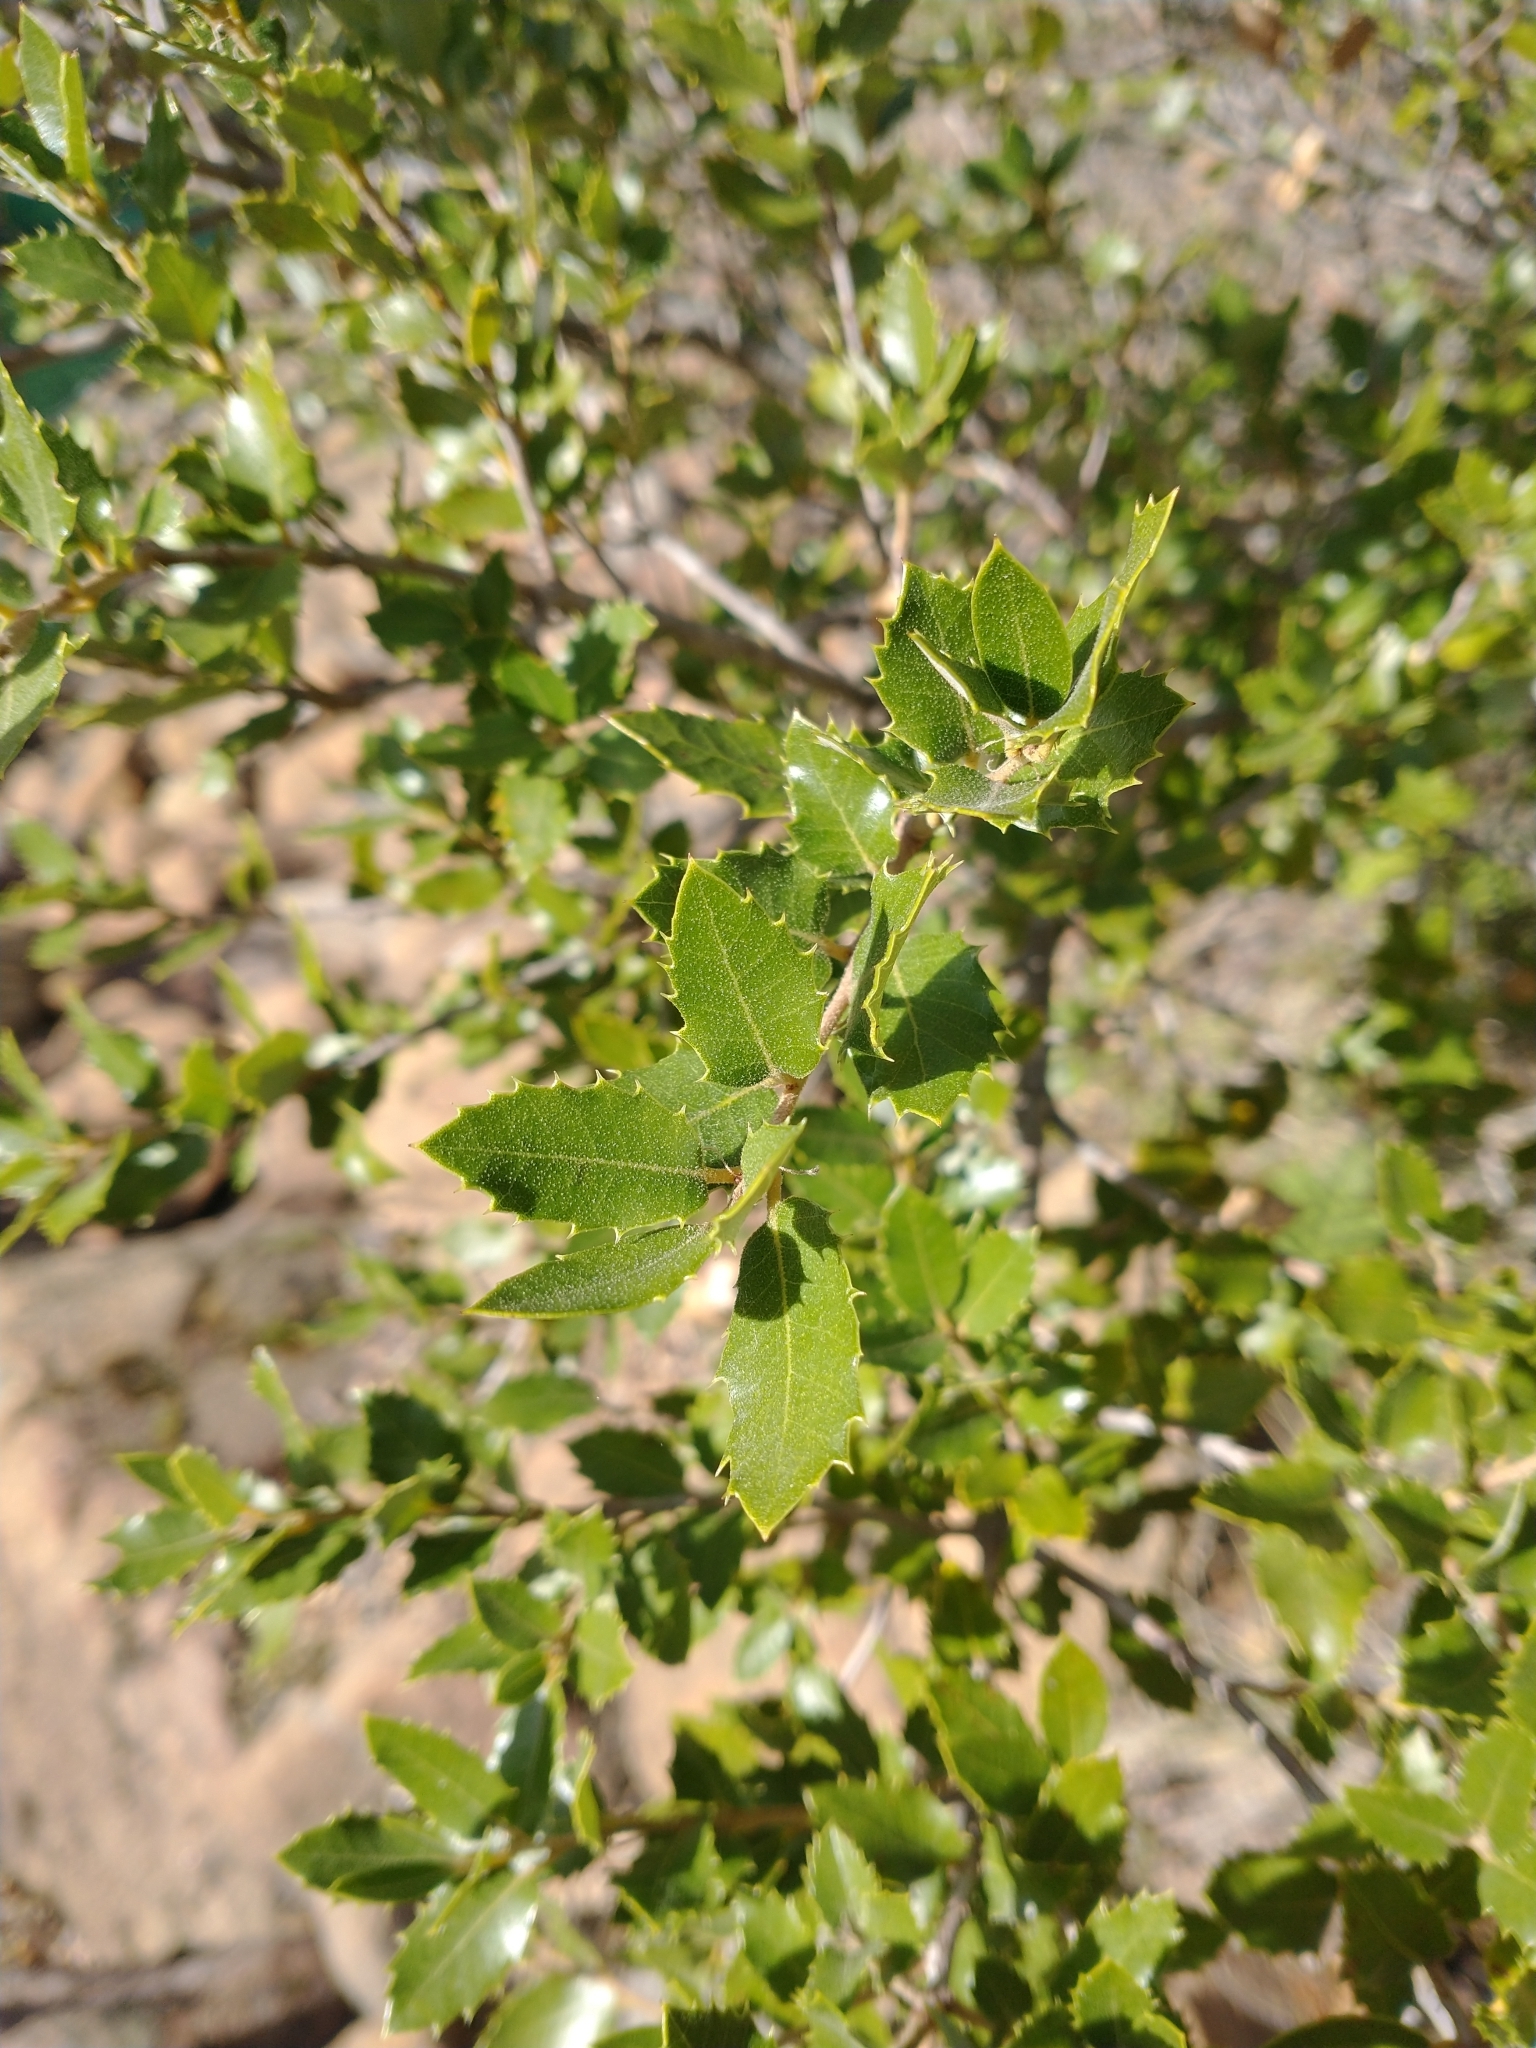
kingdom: Plantae
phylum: Tracheophyta
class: Magnoliopsida
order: Fagales
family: Fagaceae
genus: Quercus
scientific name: Quercus chrysolepis
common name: Canyon live oak
